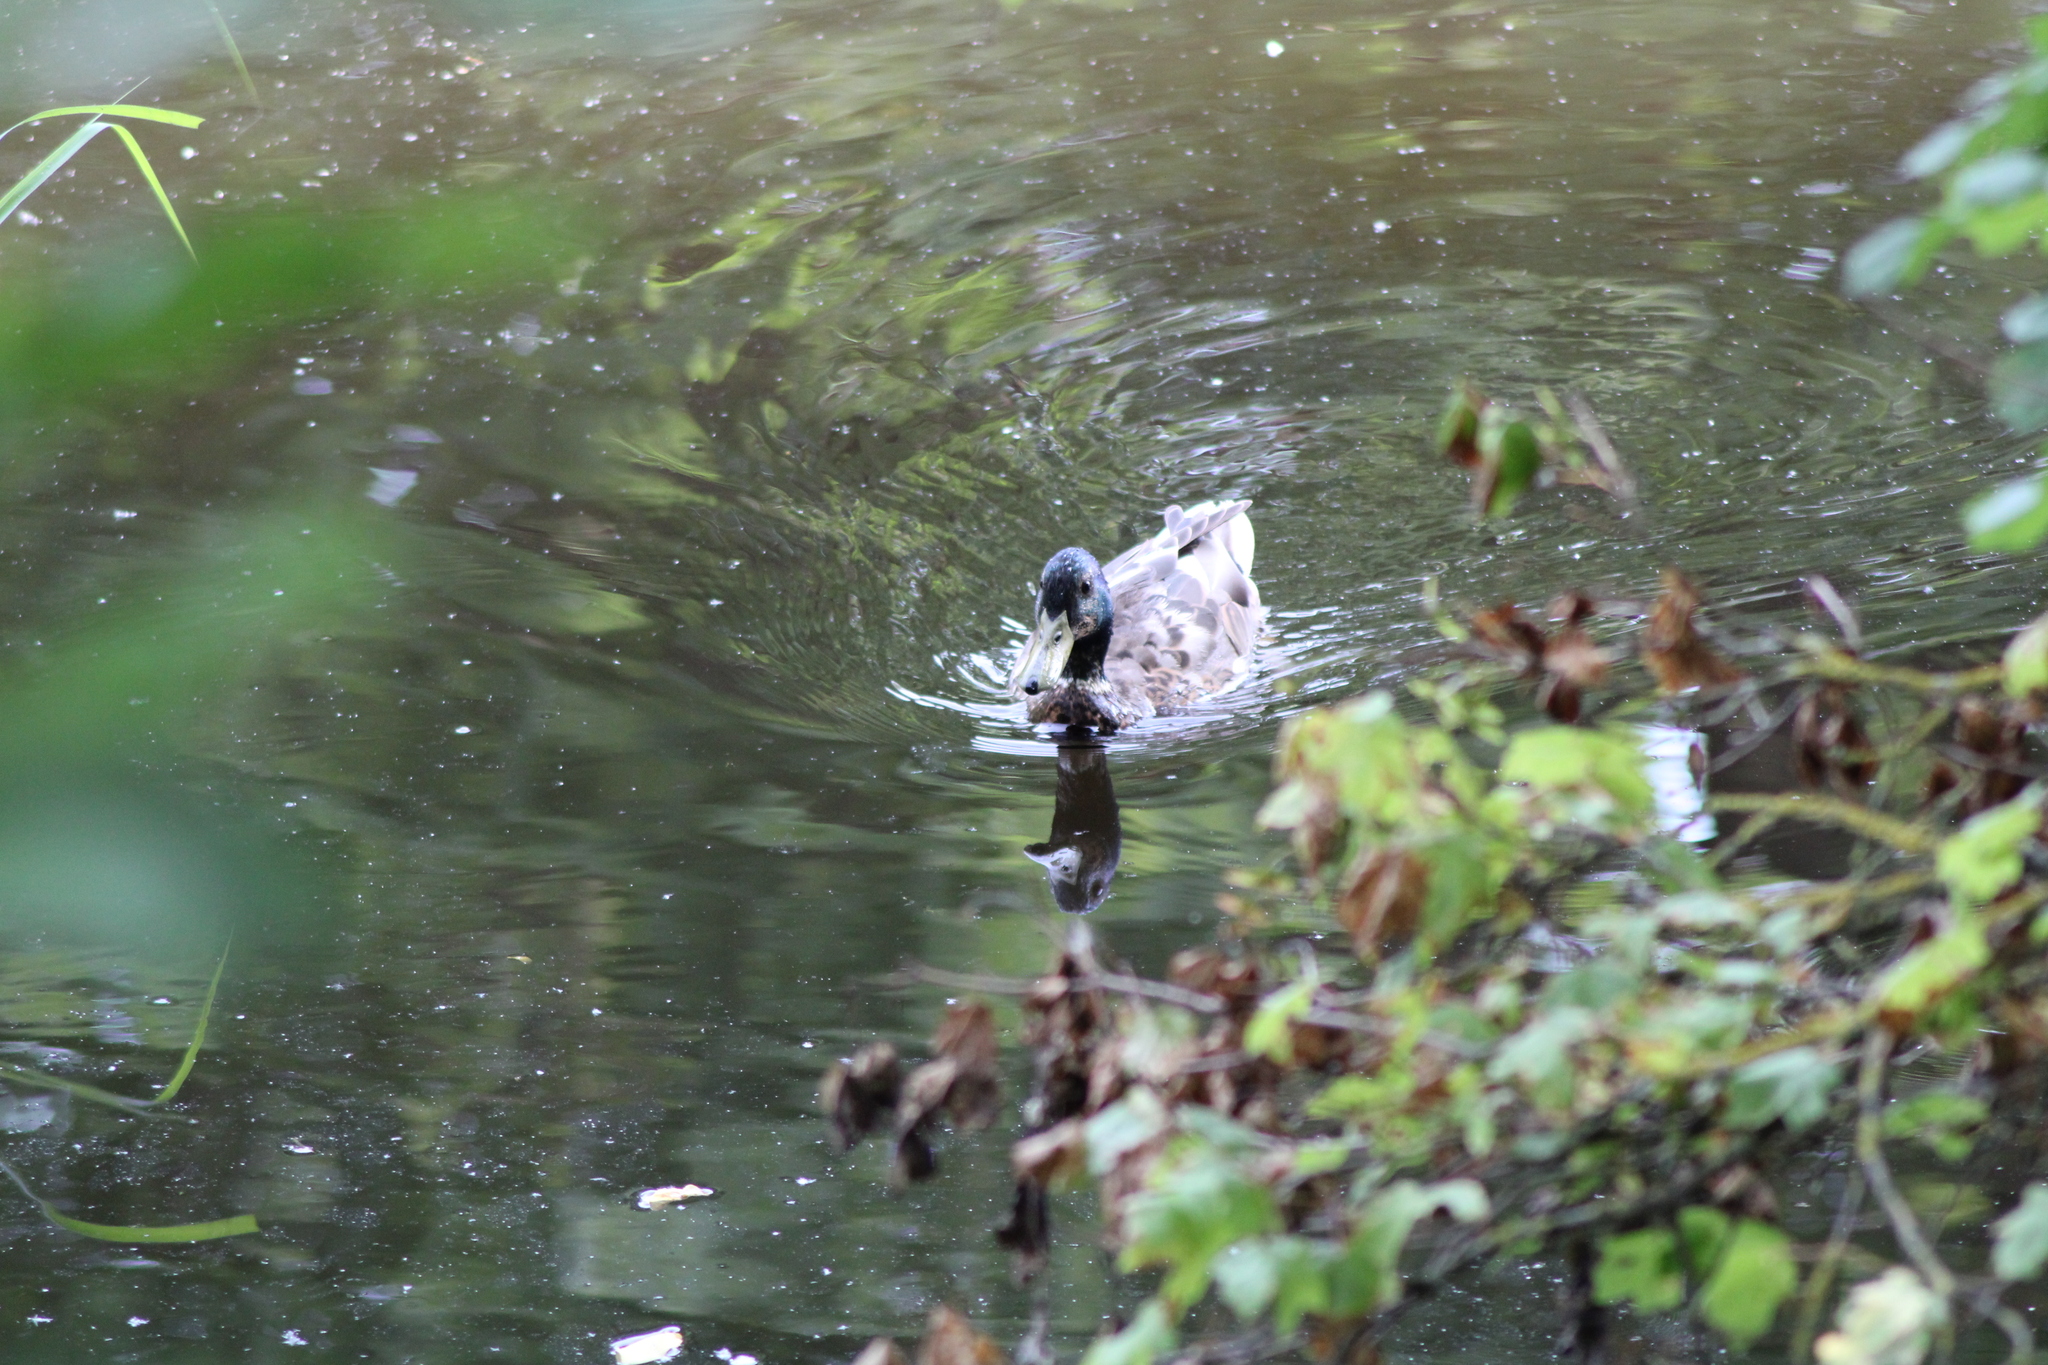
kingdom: Animalia
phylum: Chordata
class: Aves
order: Anseriformes
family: Anatidae
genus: Anas
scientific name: Anas platyrhynchos
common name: Mallard
